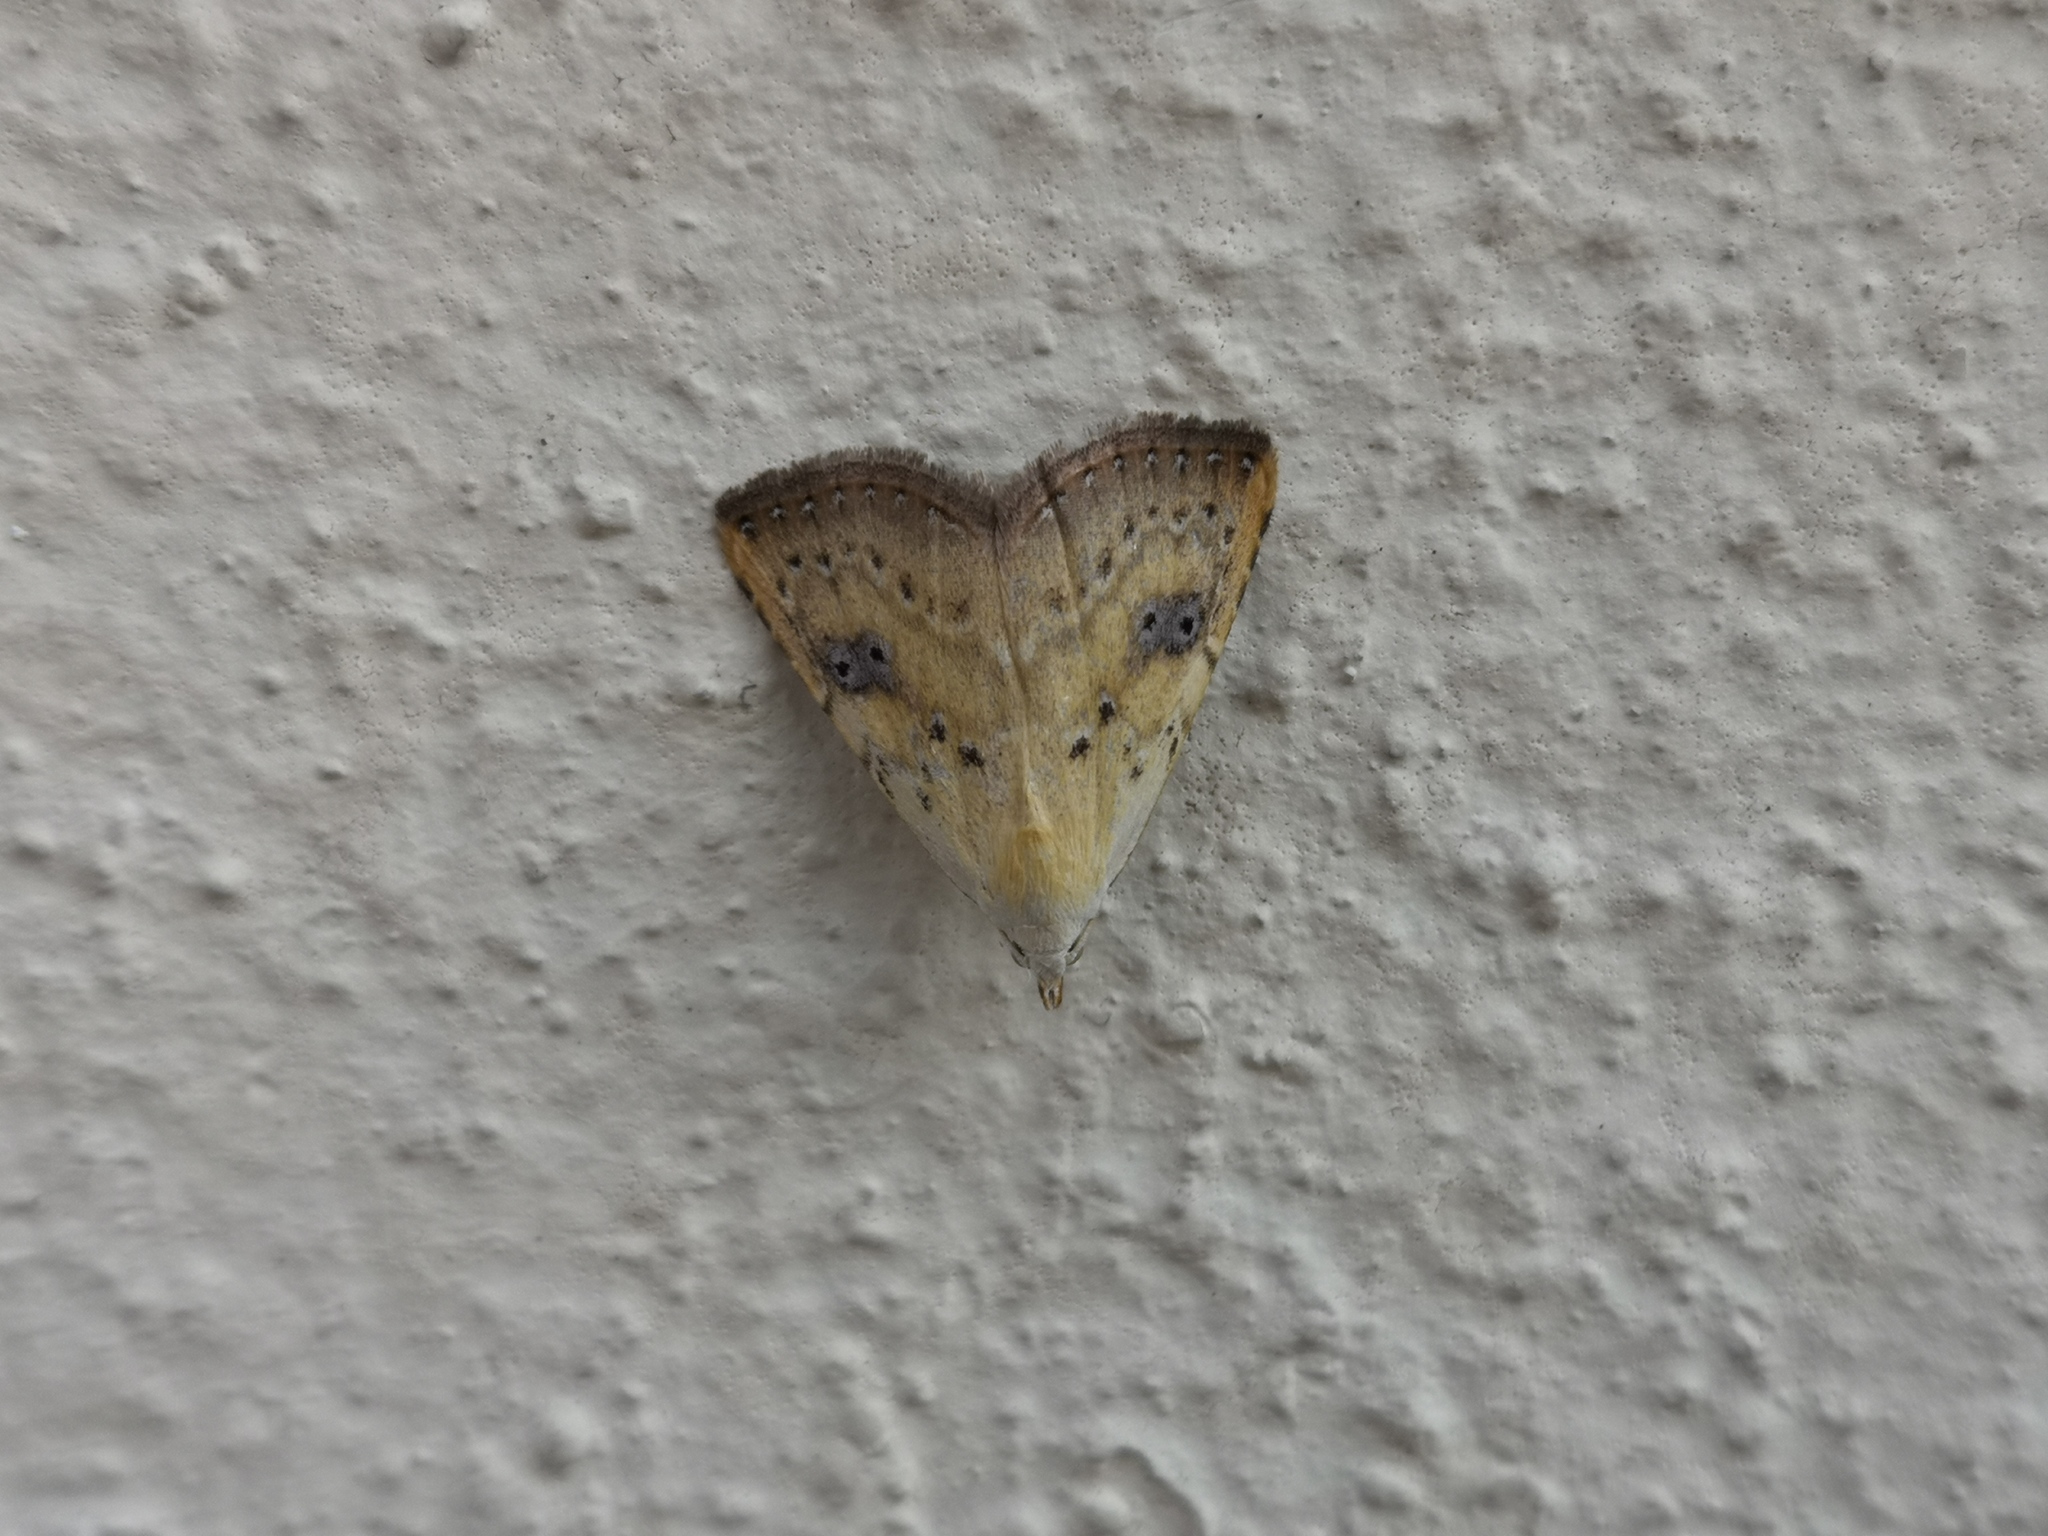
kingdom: Animalia
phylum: Arthropoda
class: Insecta
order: Lepidoptera
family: Erebidae
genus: Rivula
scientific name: Rivula sericealis
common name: Straw dot
